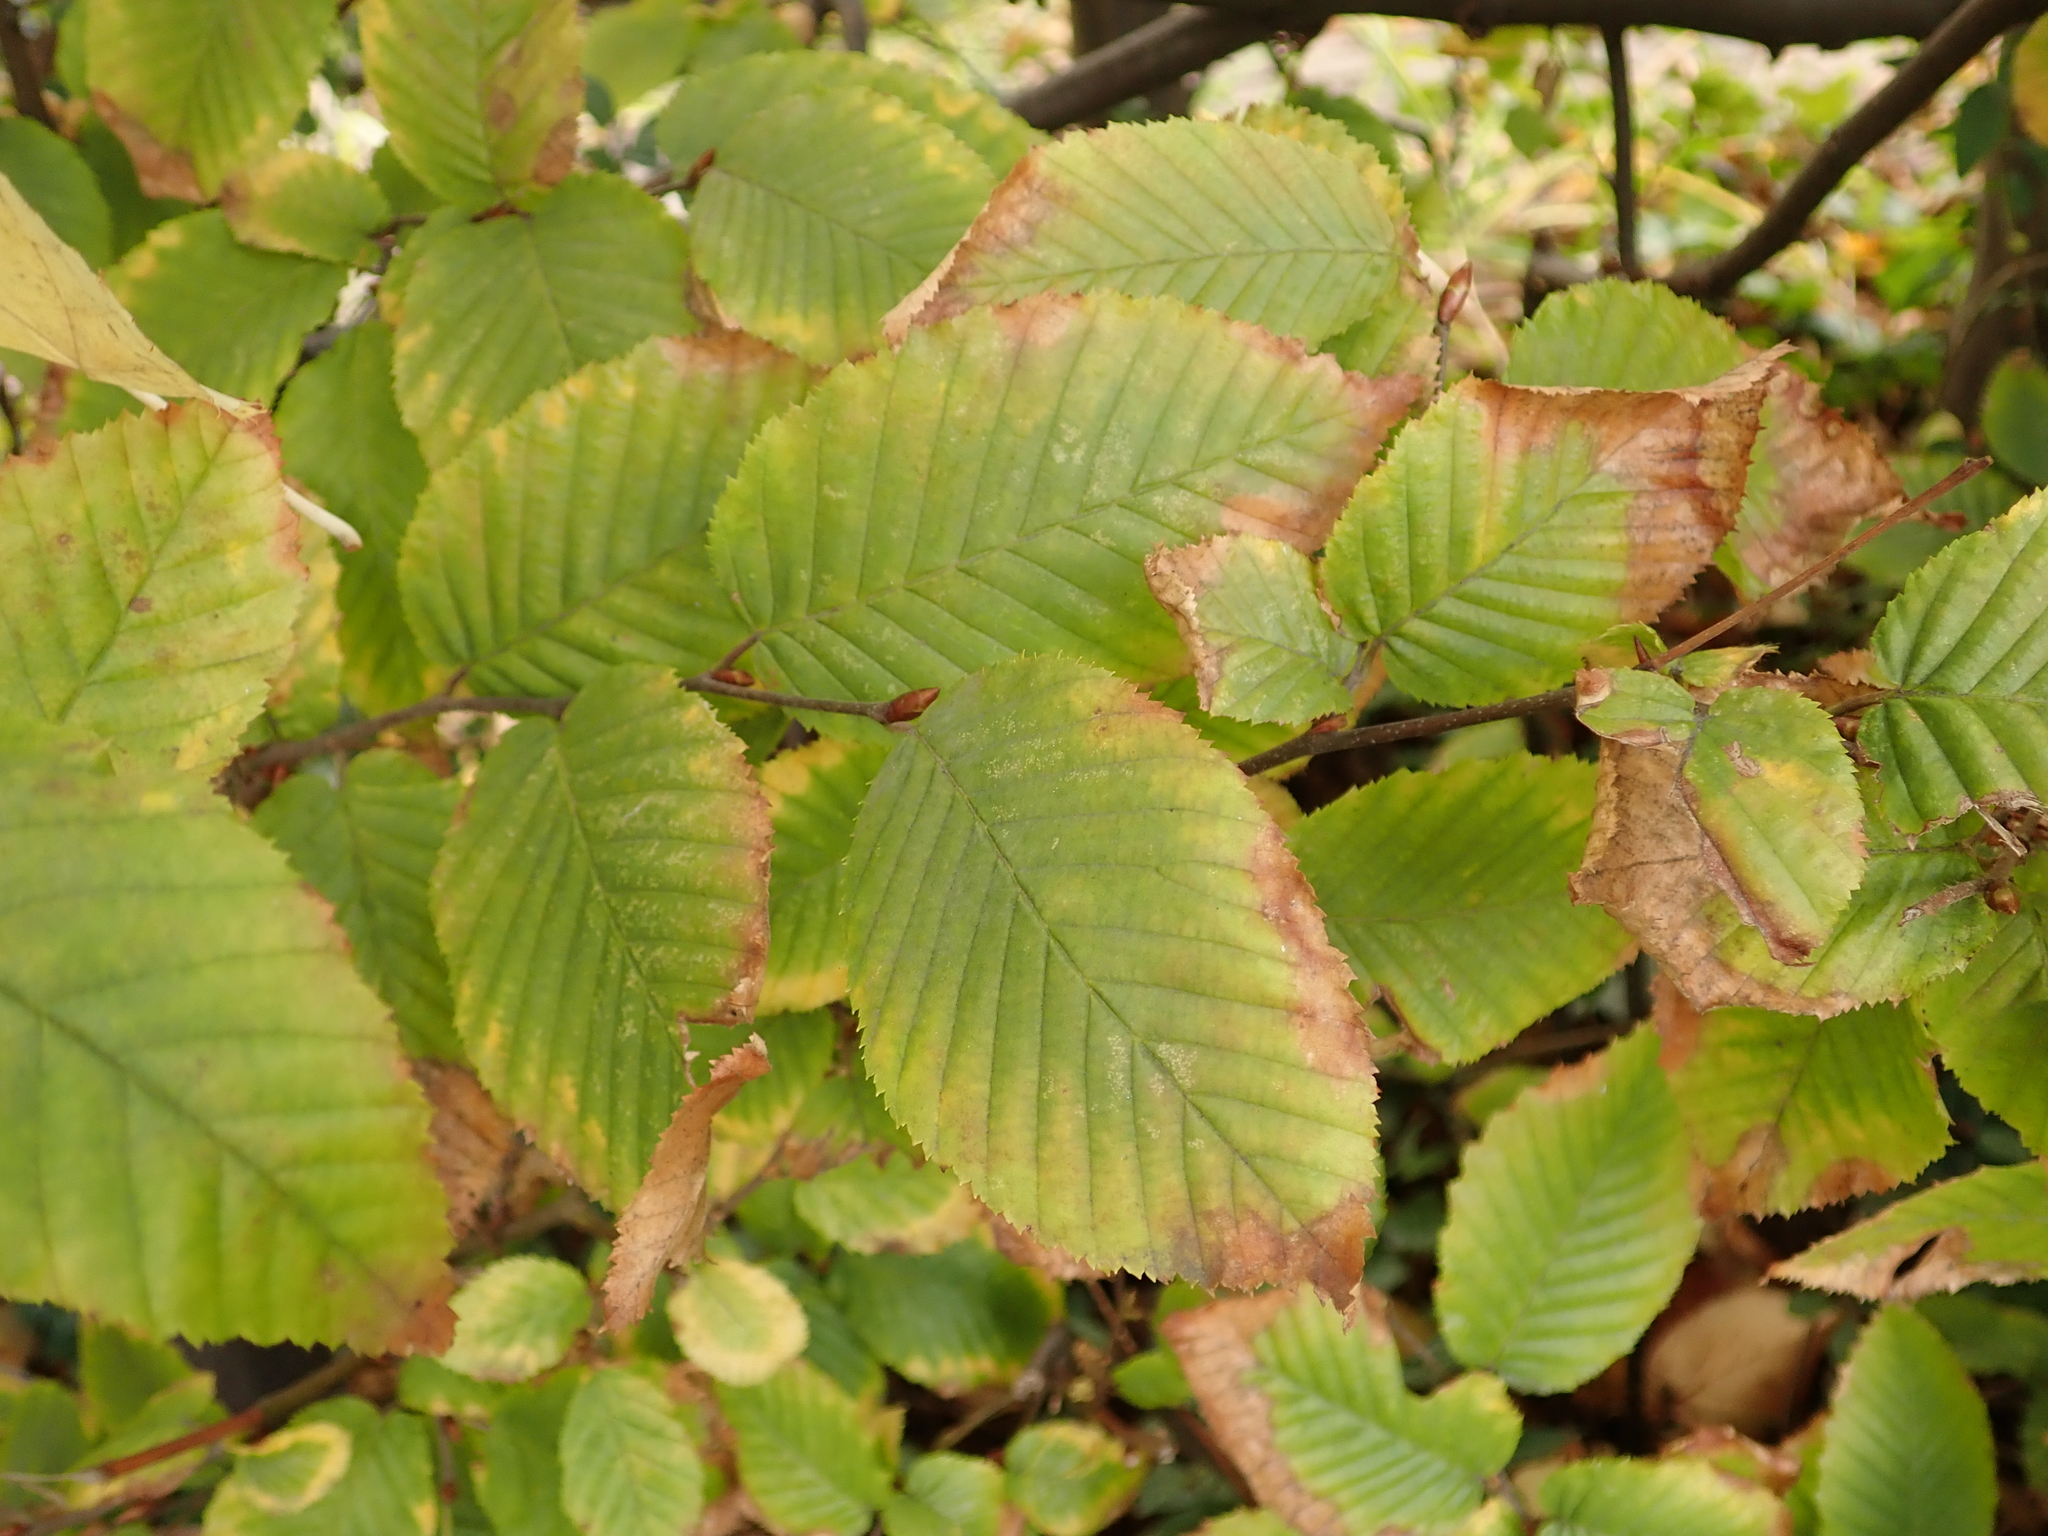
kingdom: Plantae
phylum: Tracheophyta
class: Magnoliopsida
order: Fagales
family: Betulaceae
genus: Carpinus
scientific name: Carpinus betulus
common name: Hornbeam
